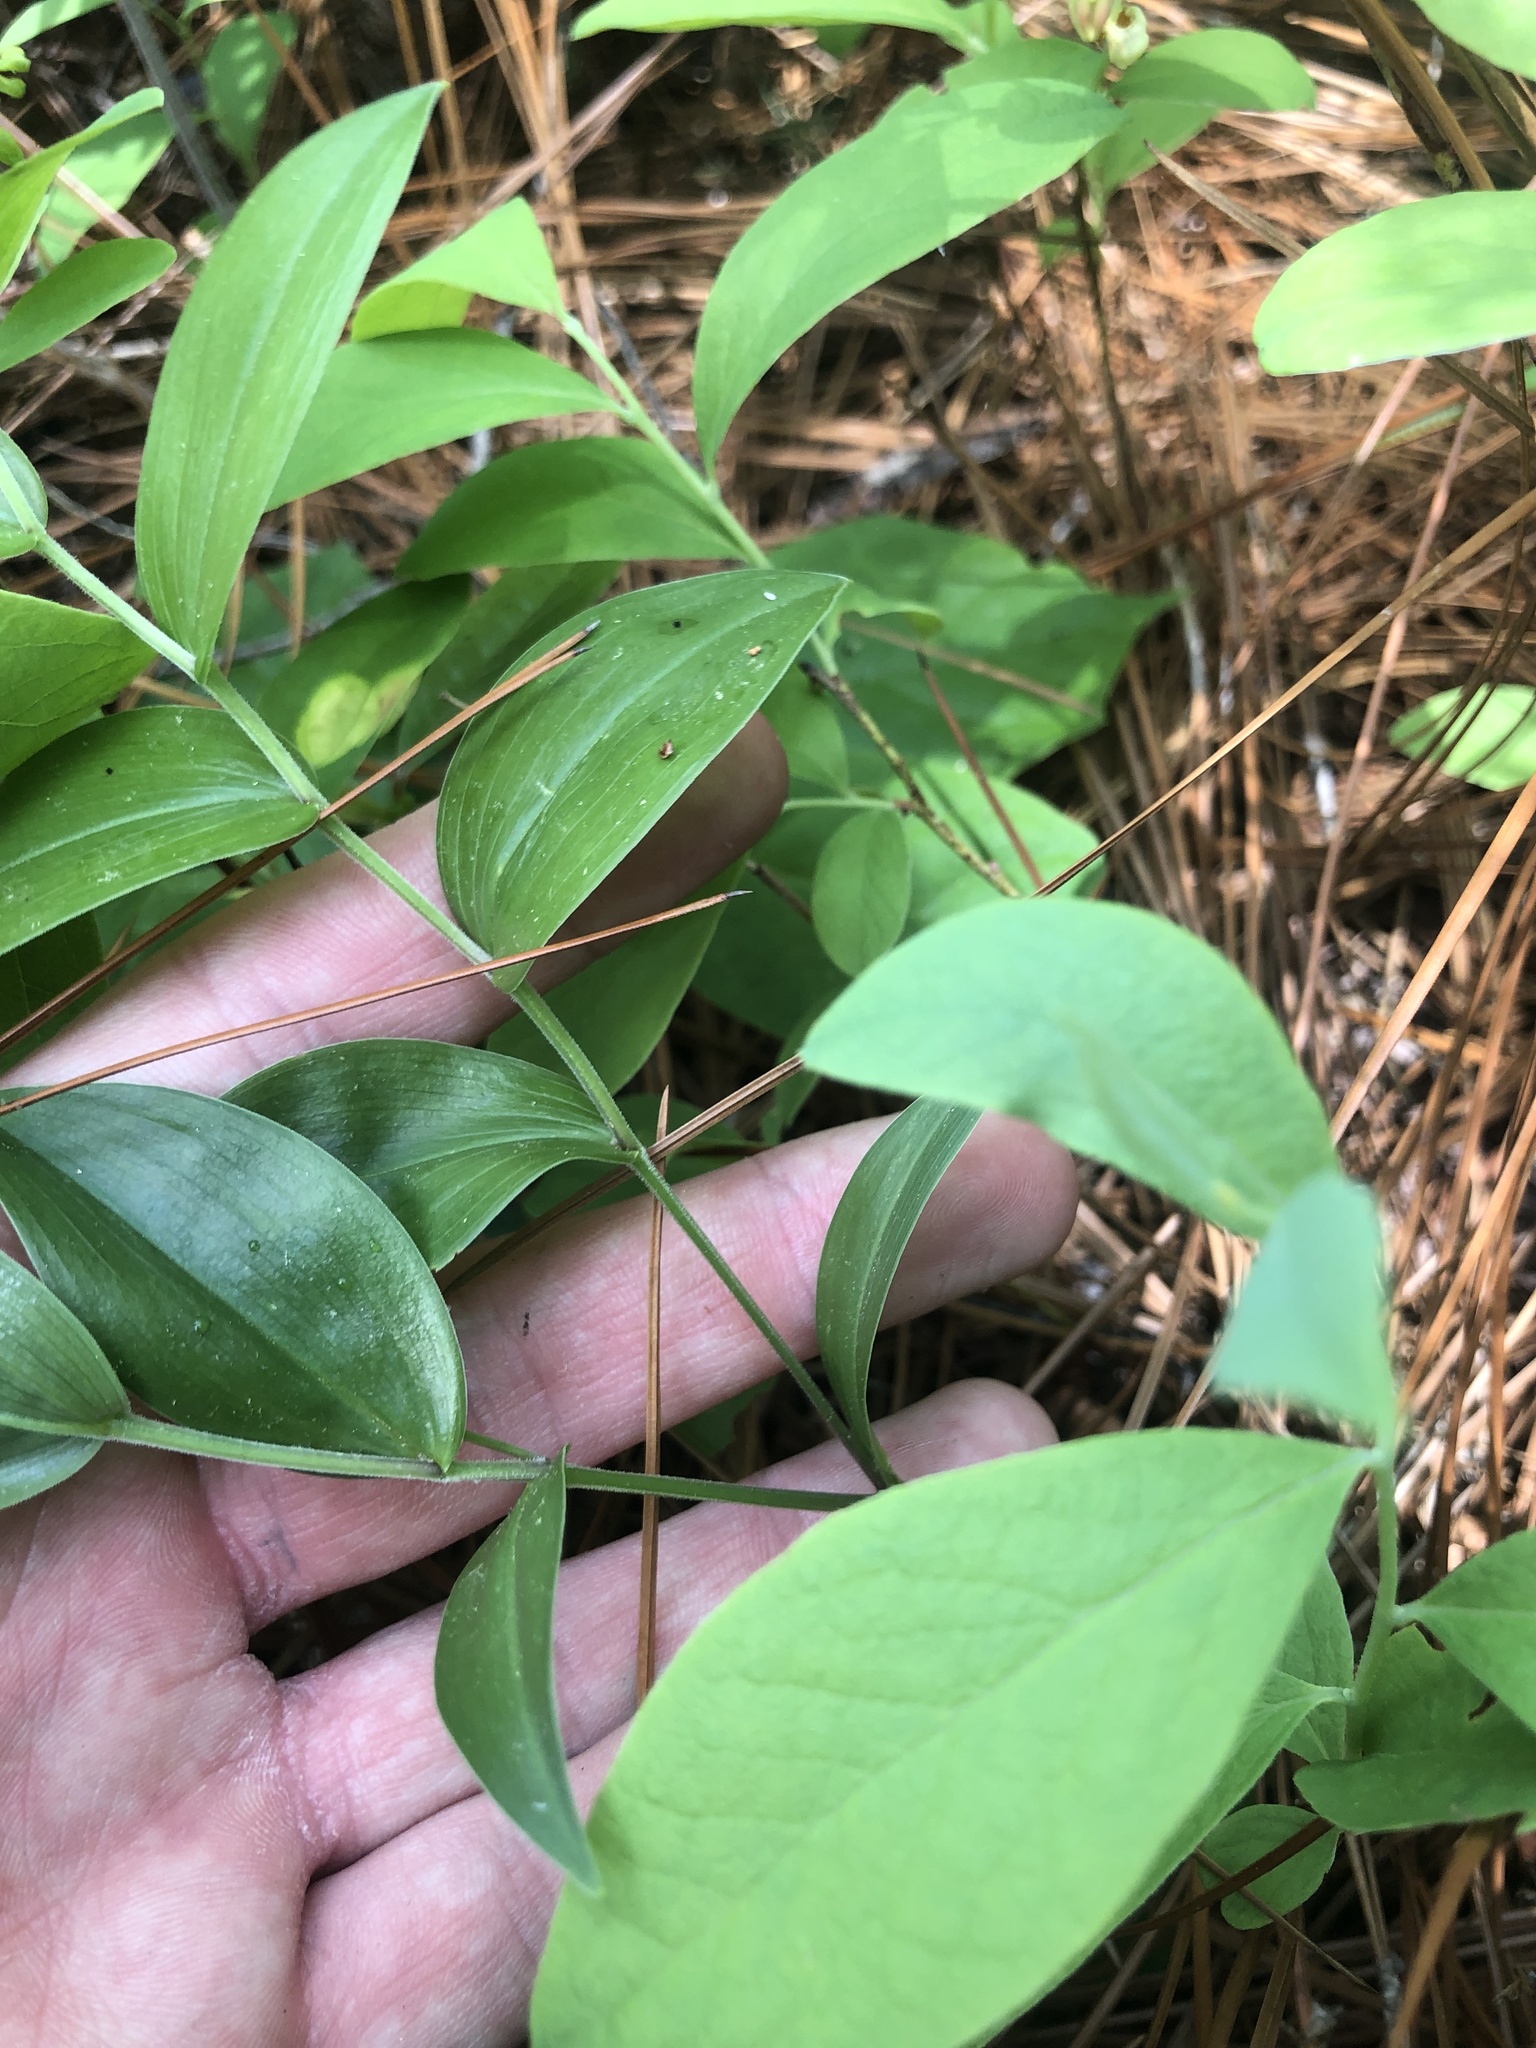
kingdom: Plantae
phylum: Tracheophyta
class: Liliopsida
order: Liliales
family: Colchicaceae
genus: Uvularia
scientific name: Uvularia puberula
